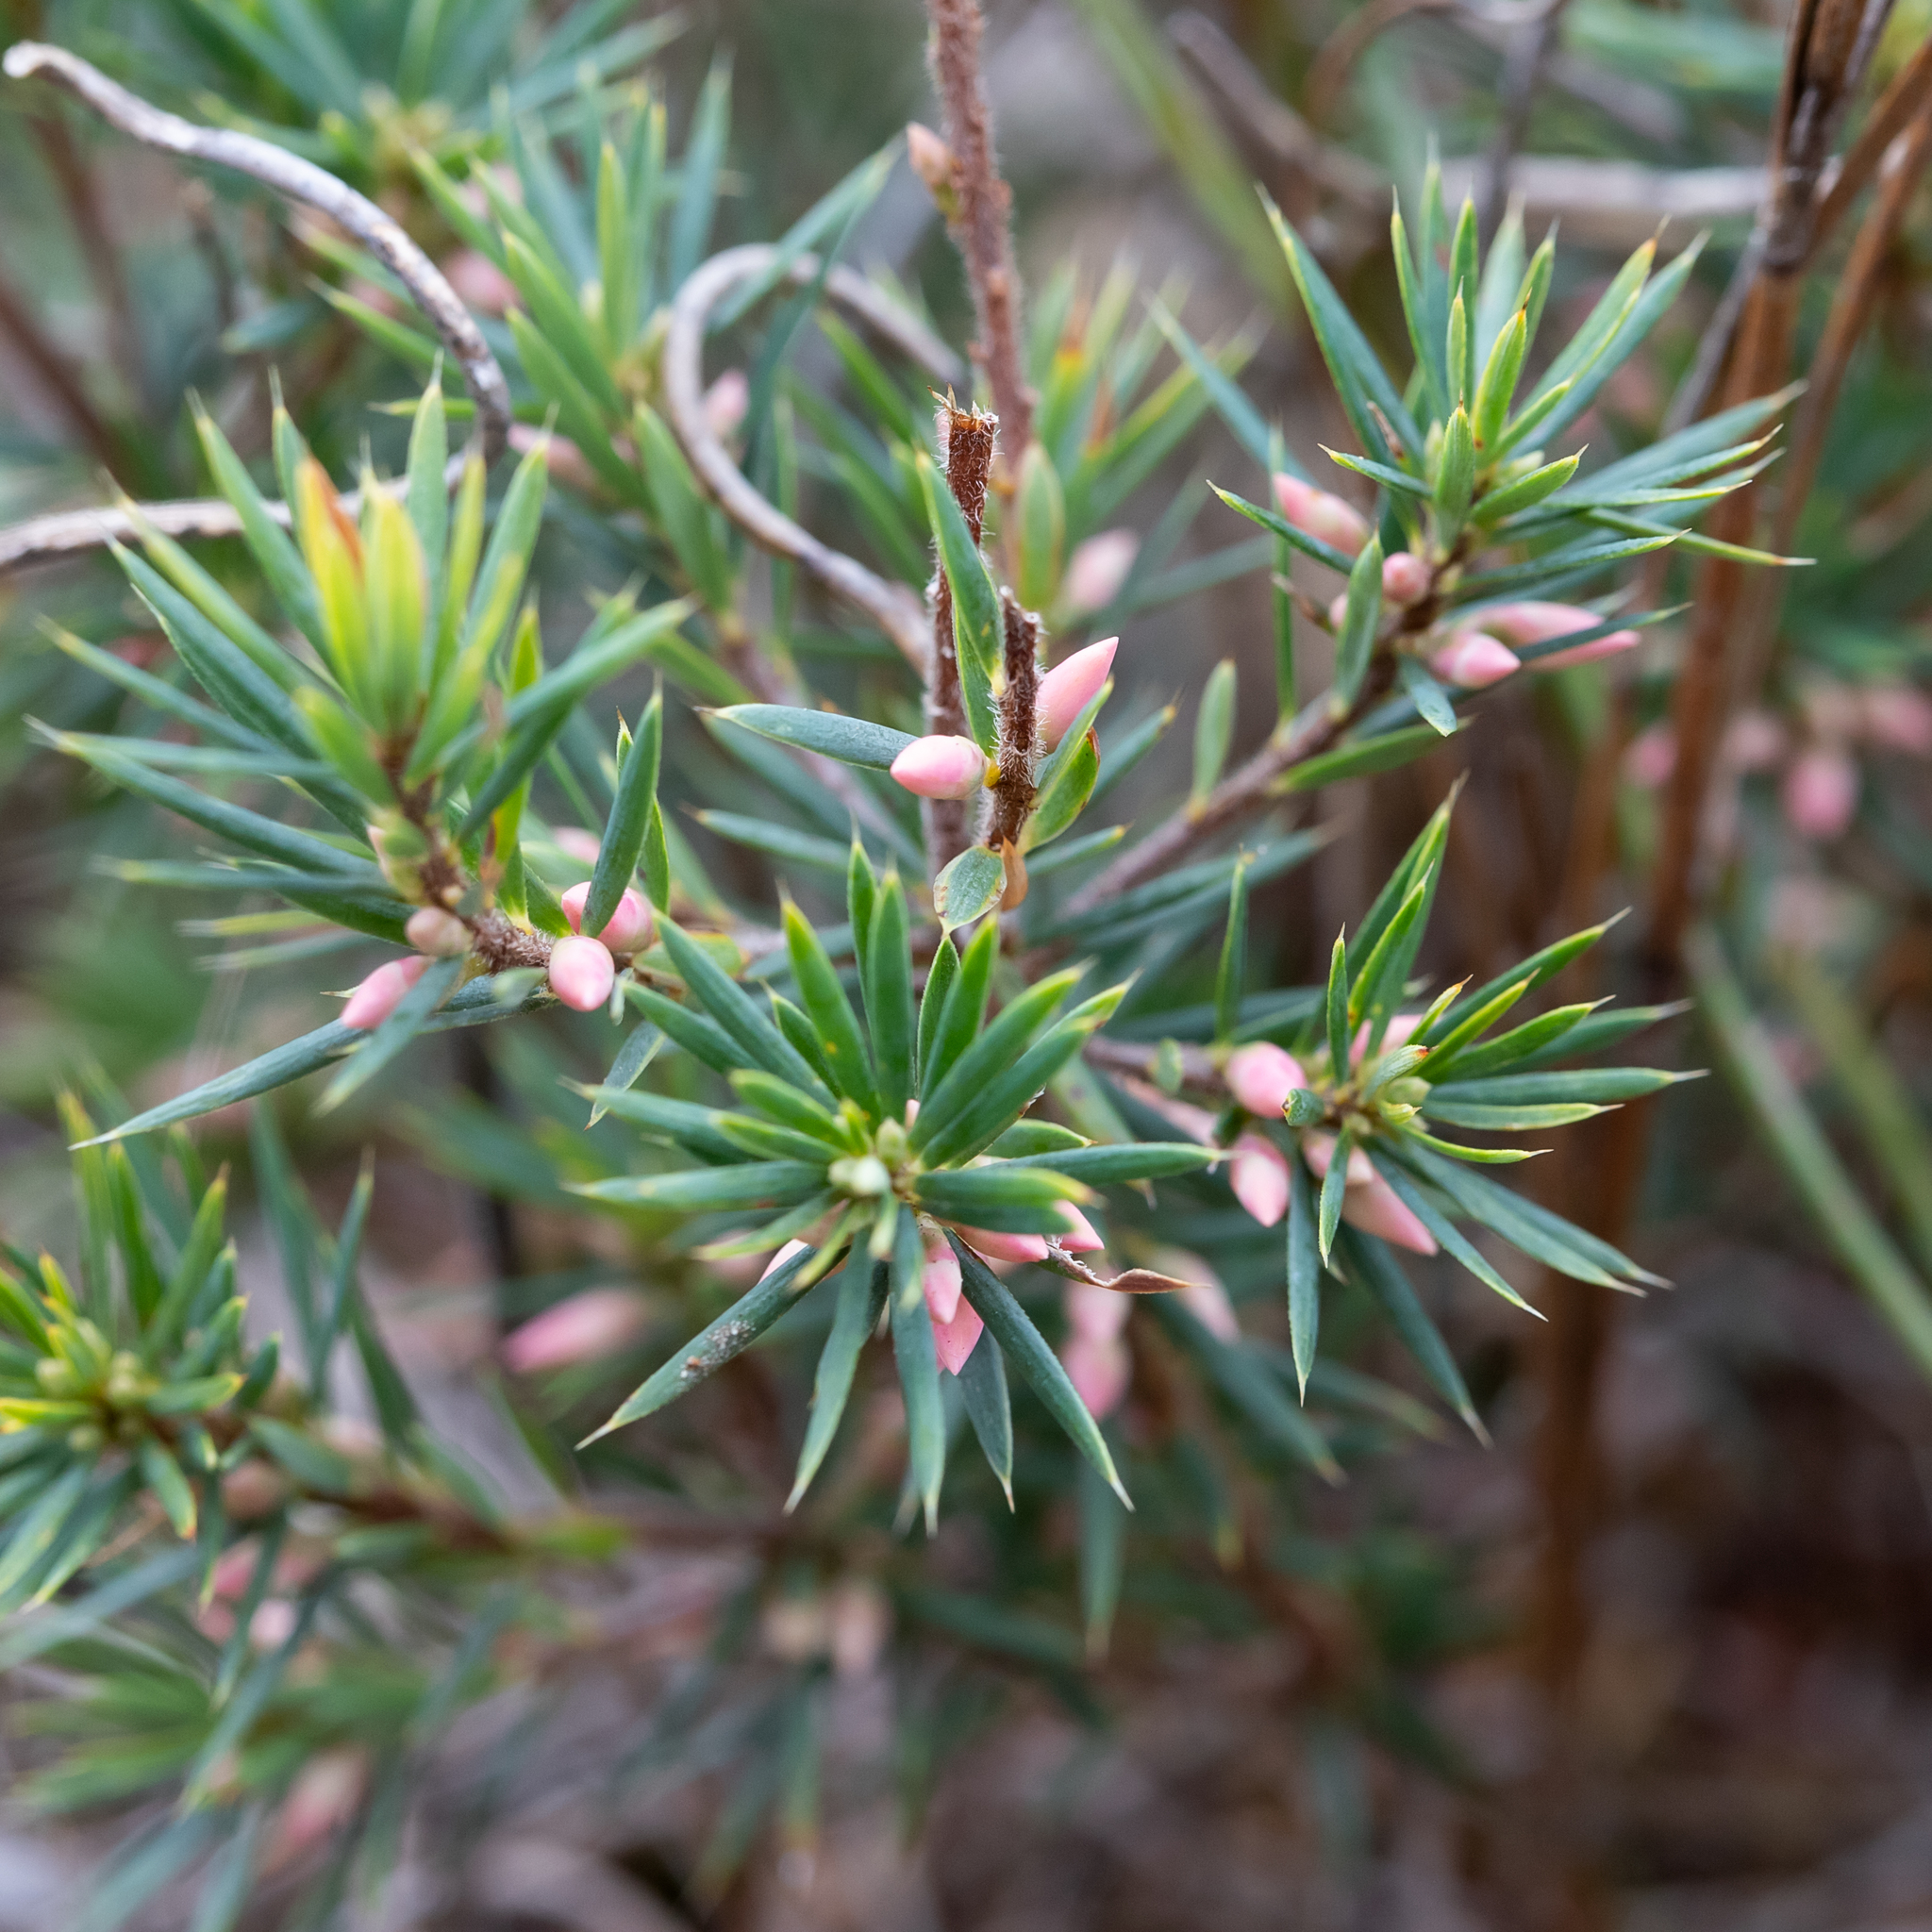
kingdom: Plantae
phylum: Tracheophyta
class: Magnoliopsida
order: Ericales
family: Ericaceae
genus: Brachyloma
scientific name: Brachyloma ericoides
